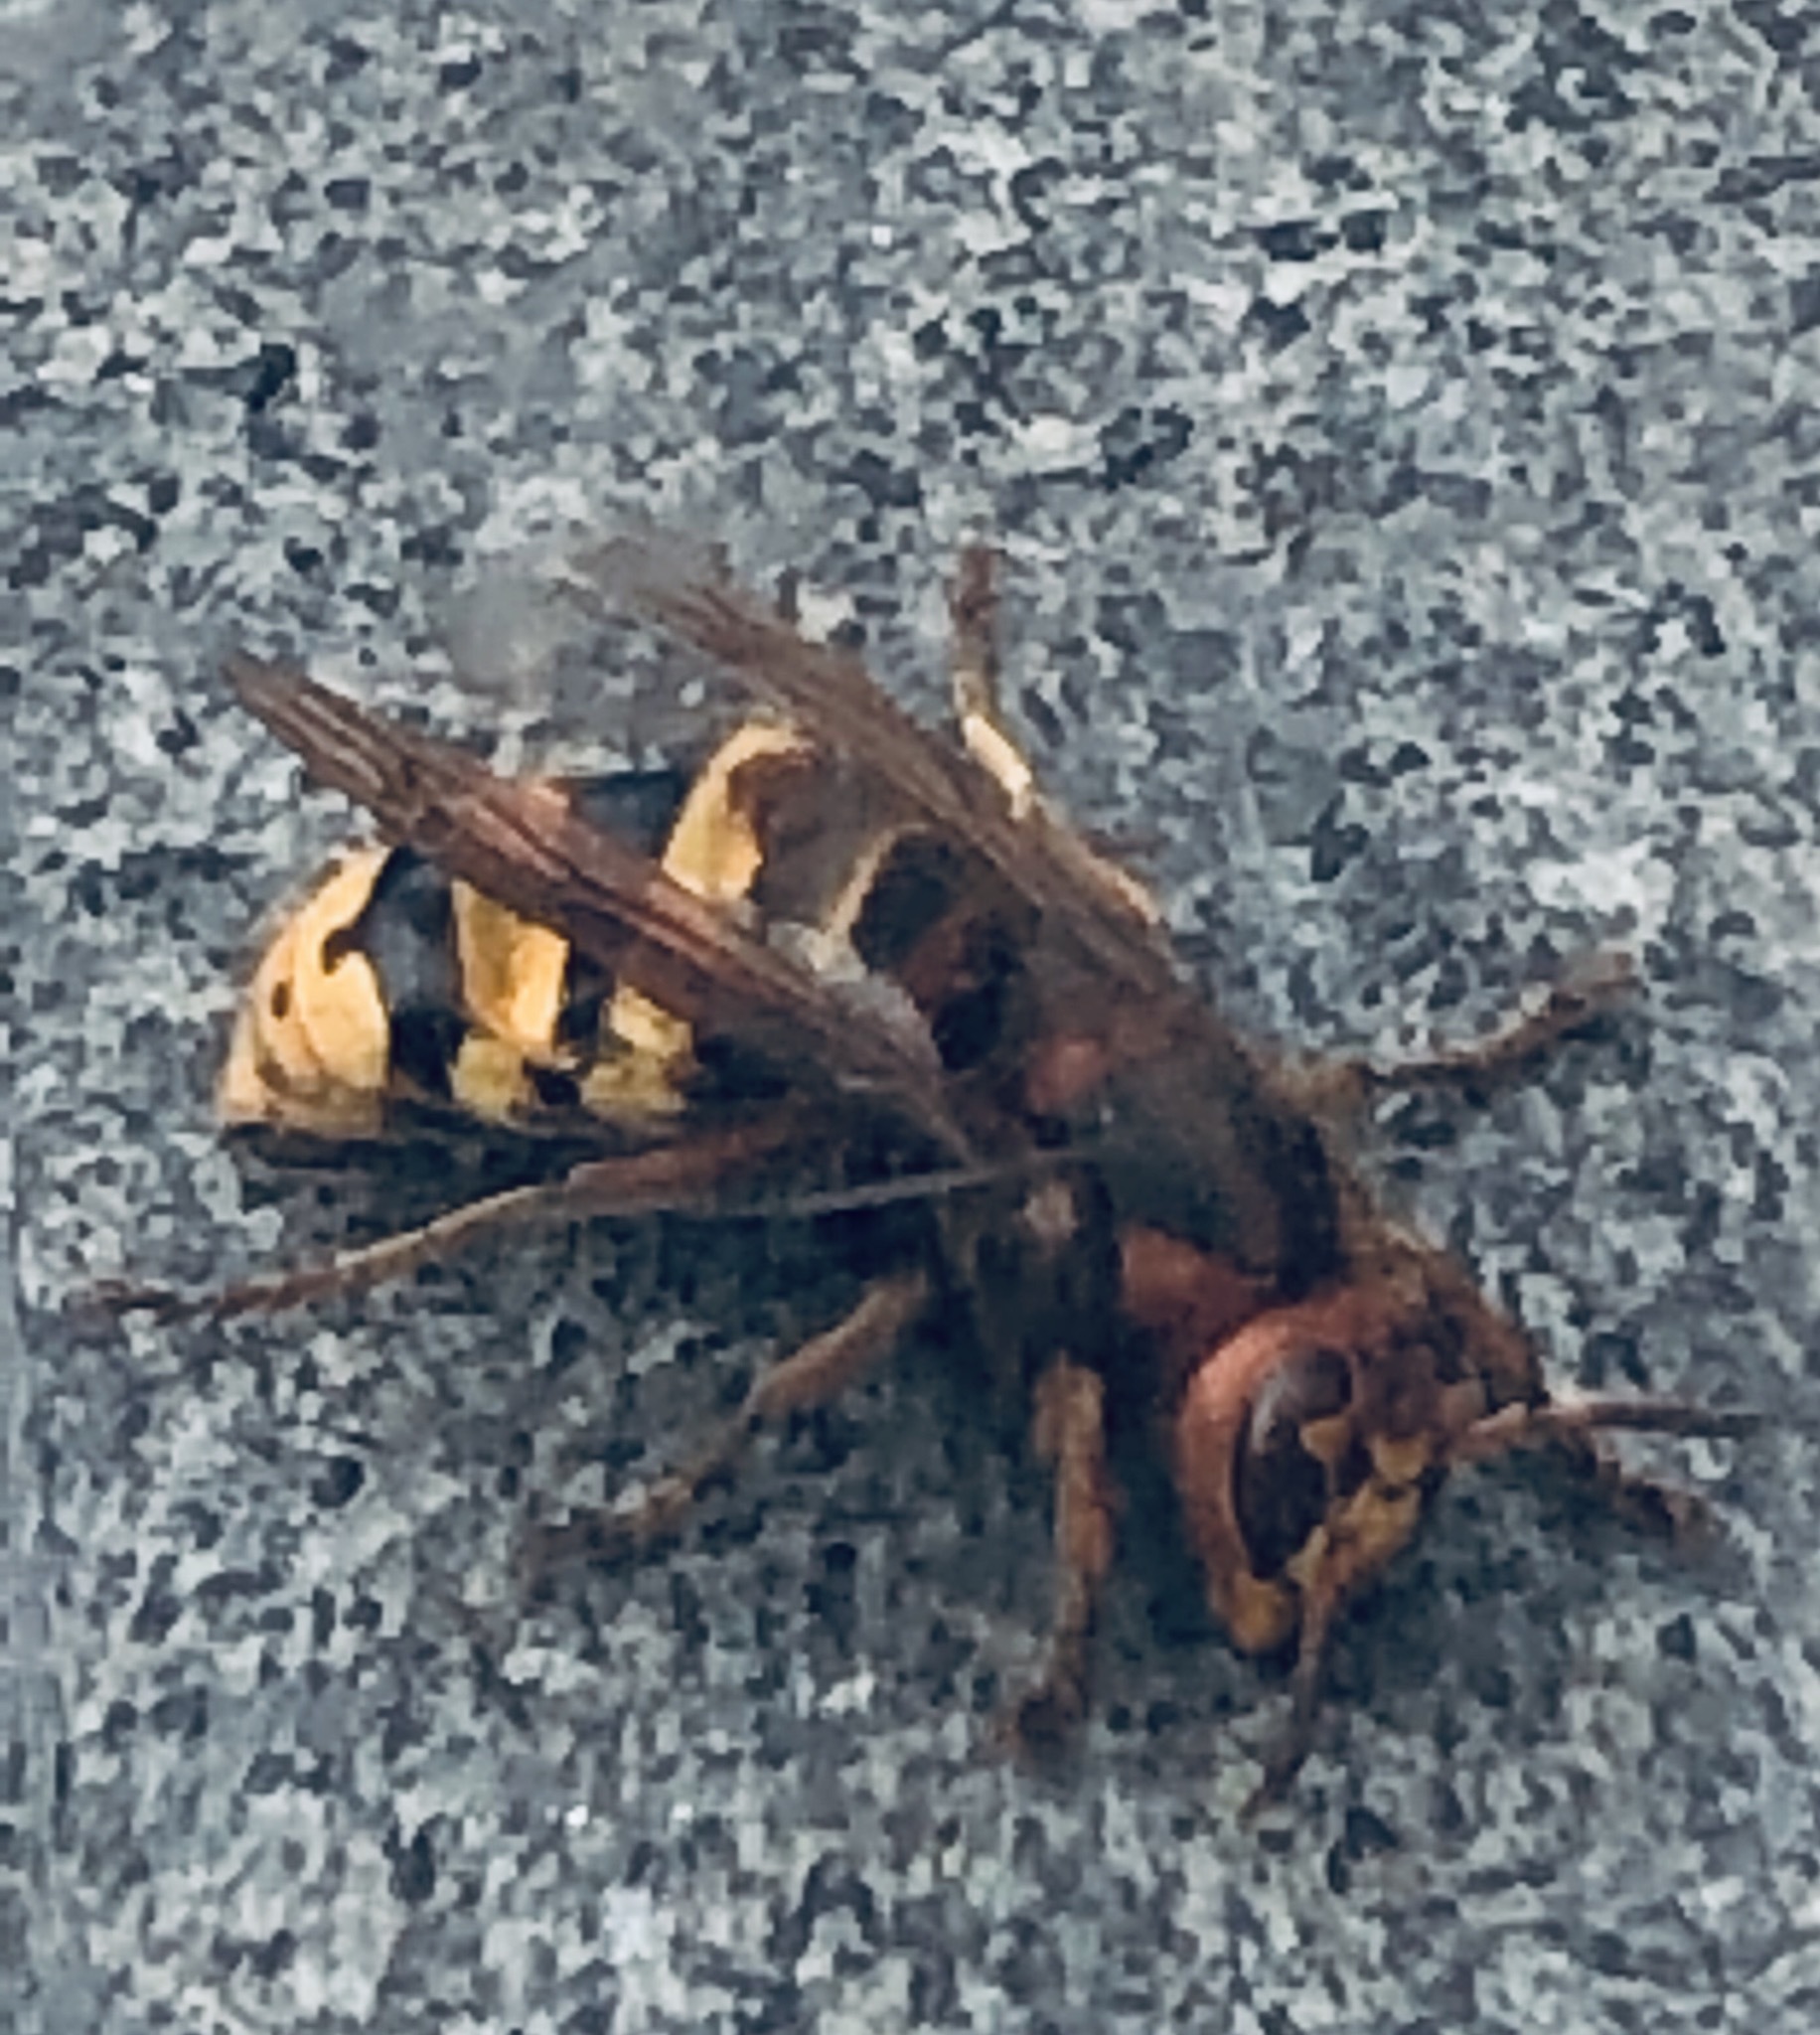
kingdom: Animalia
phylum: Arthropoda
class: Insecta
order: Hymenoptera
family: Vespidae
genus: Vespa
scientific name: Vespa crabro
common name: Hornet
